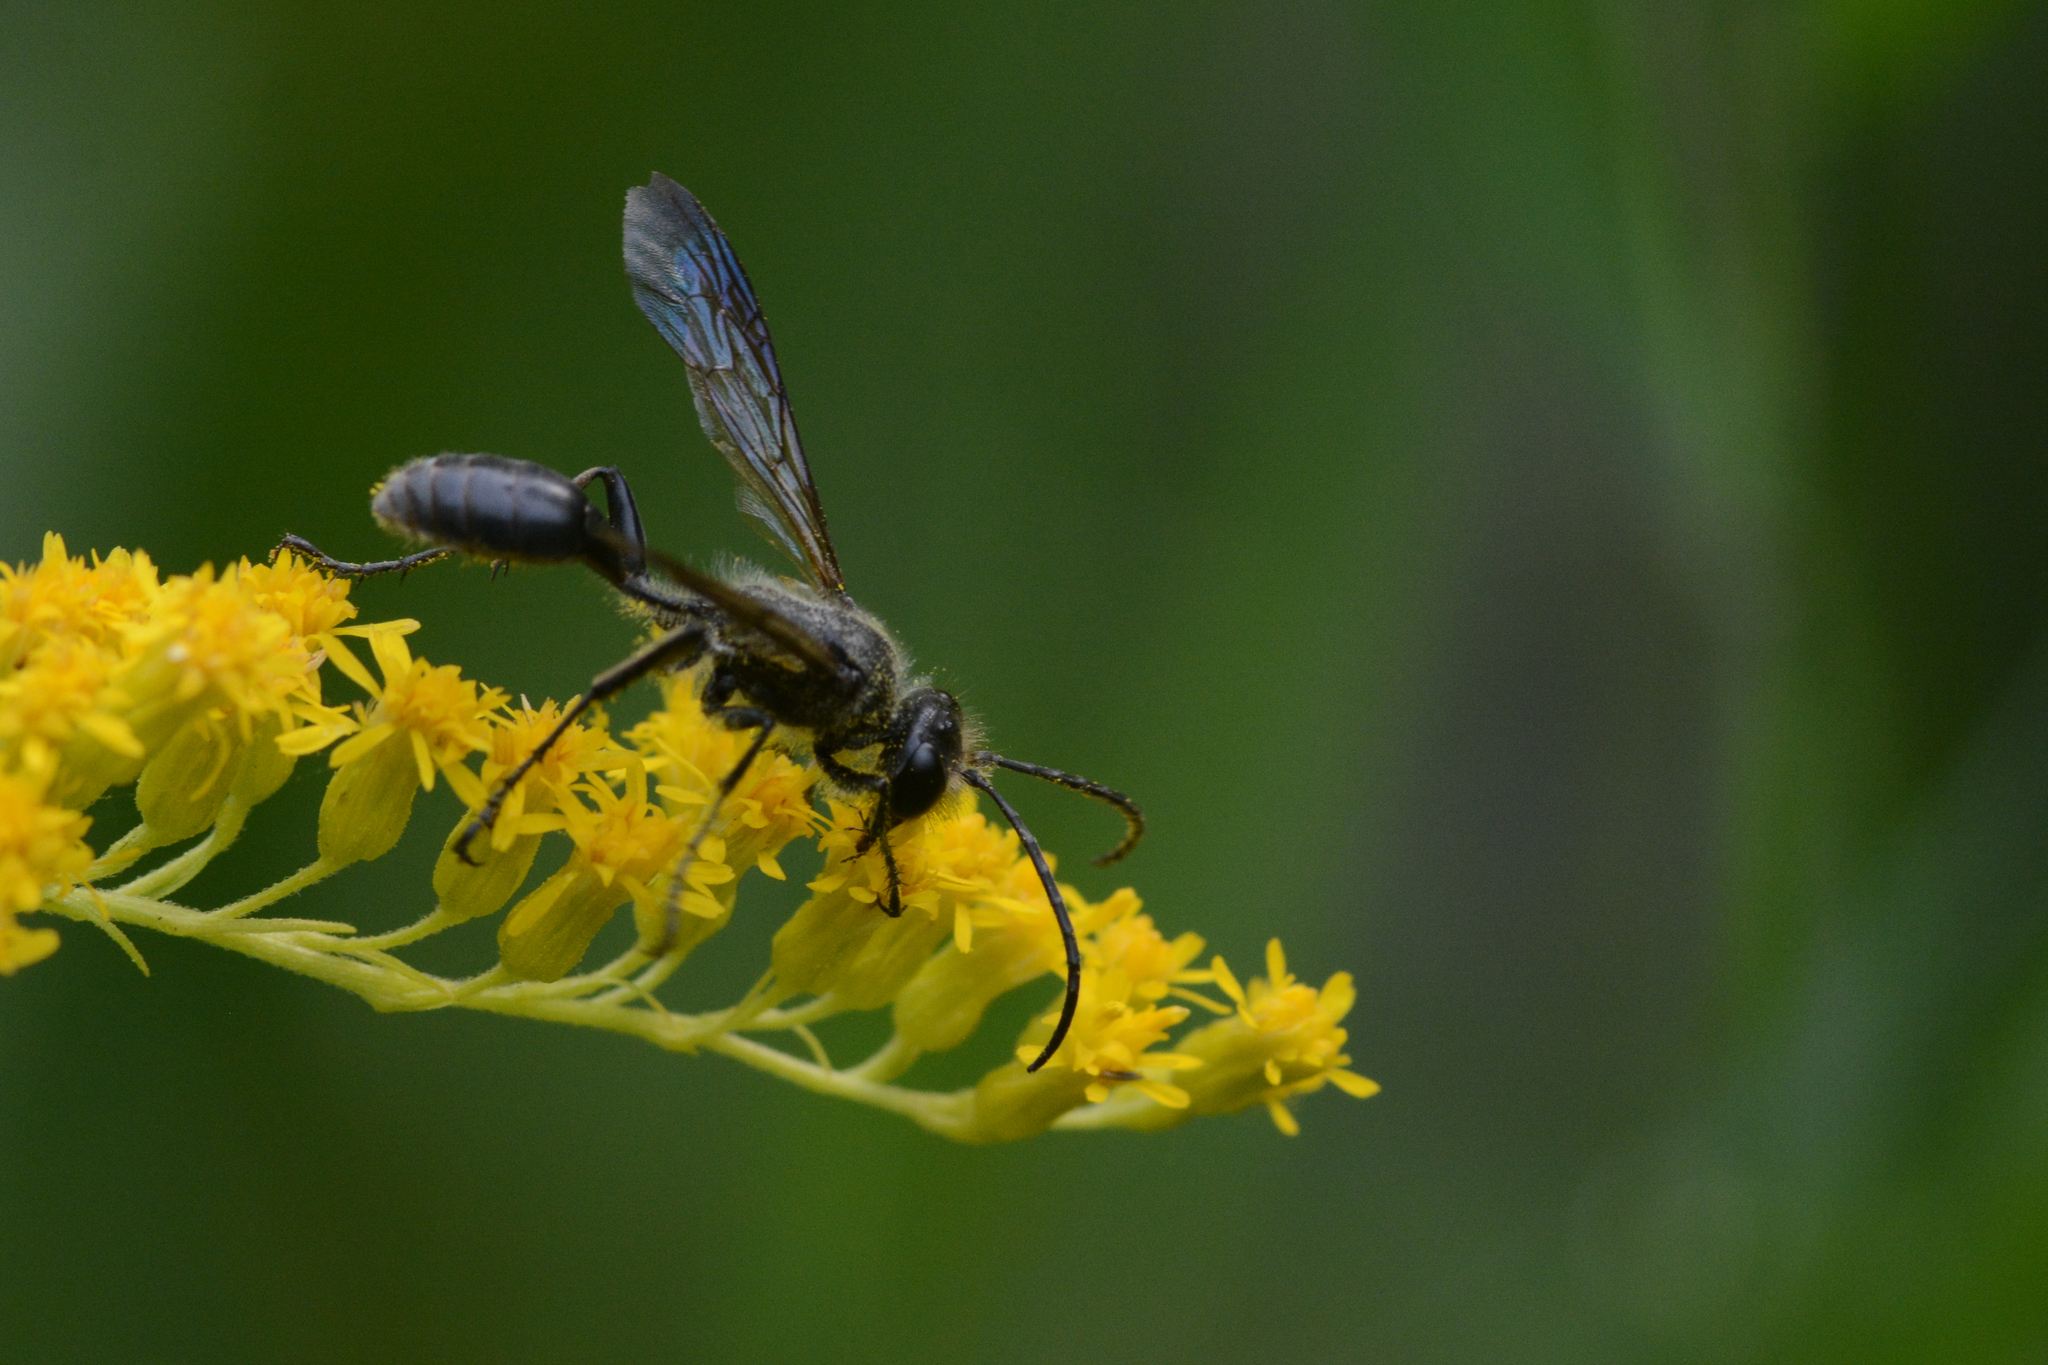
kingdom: Animalia
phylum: Arthropoda
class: Insecta
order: Hymenoptera
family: Sphecidae
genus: Isodontia
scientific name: Isodontia mexicana
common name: Mud dauber
